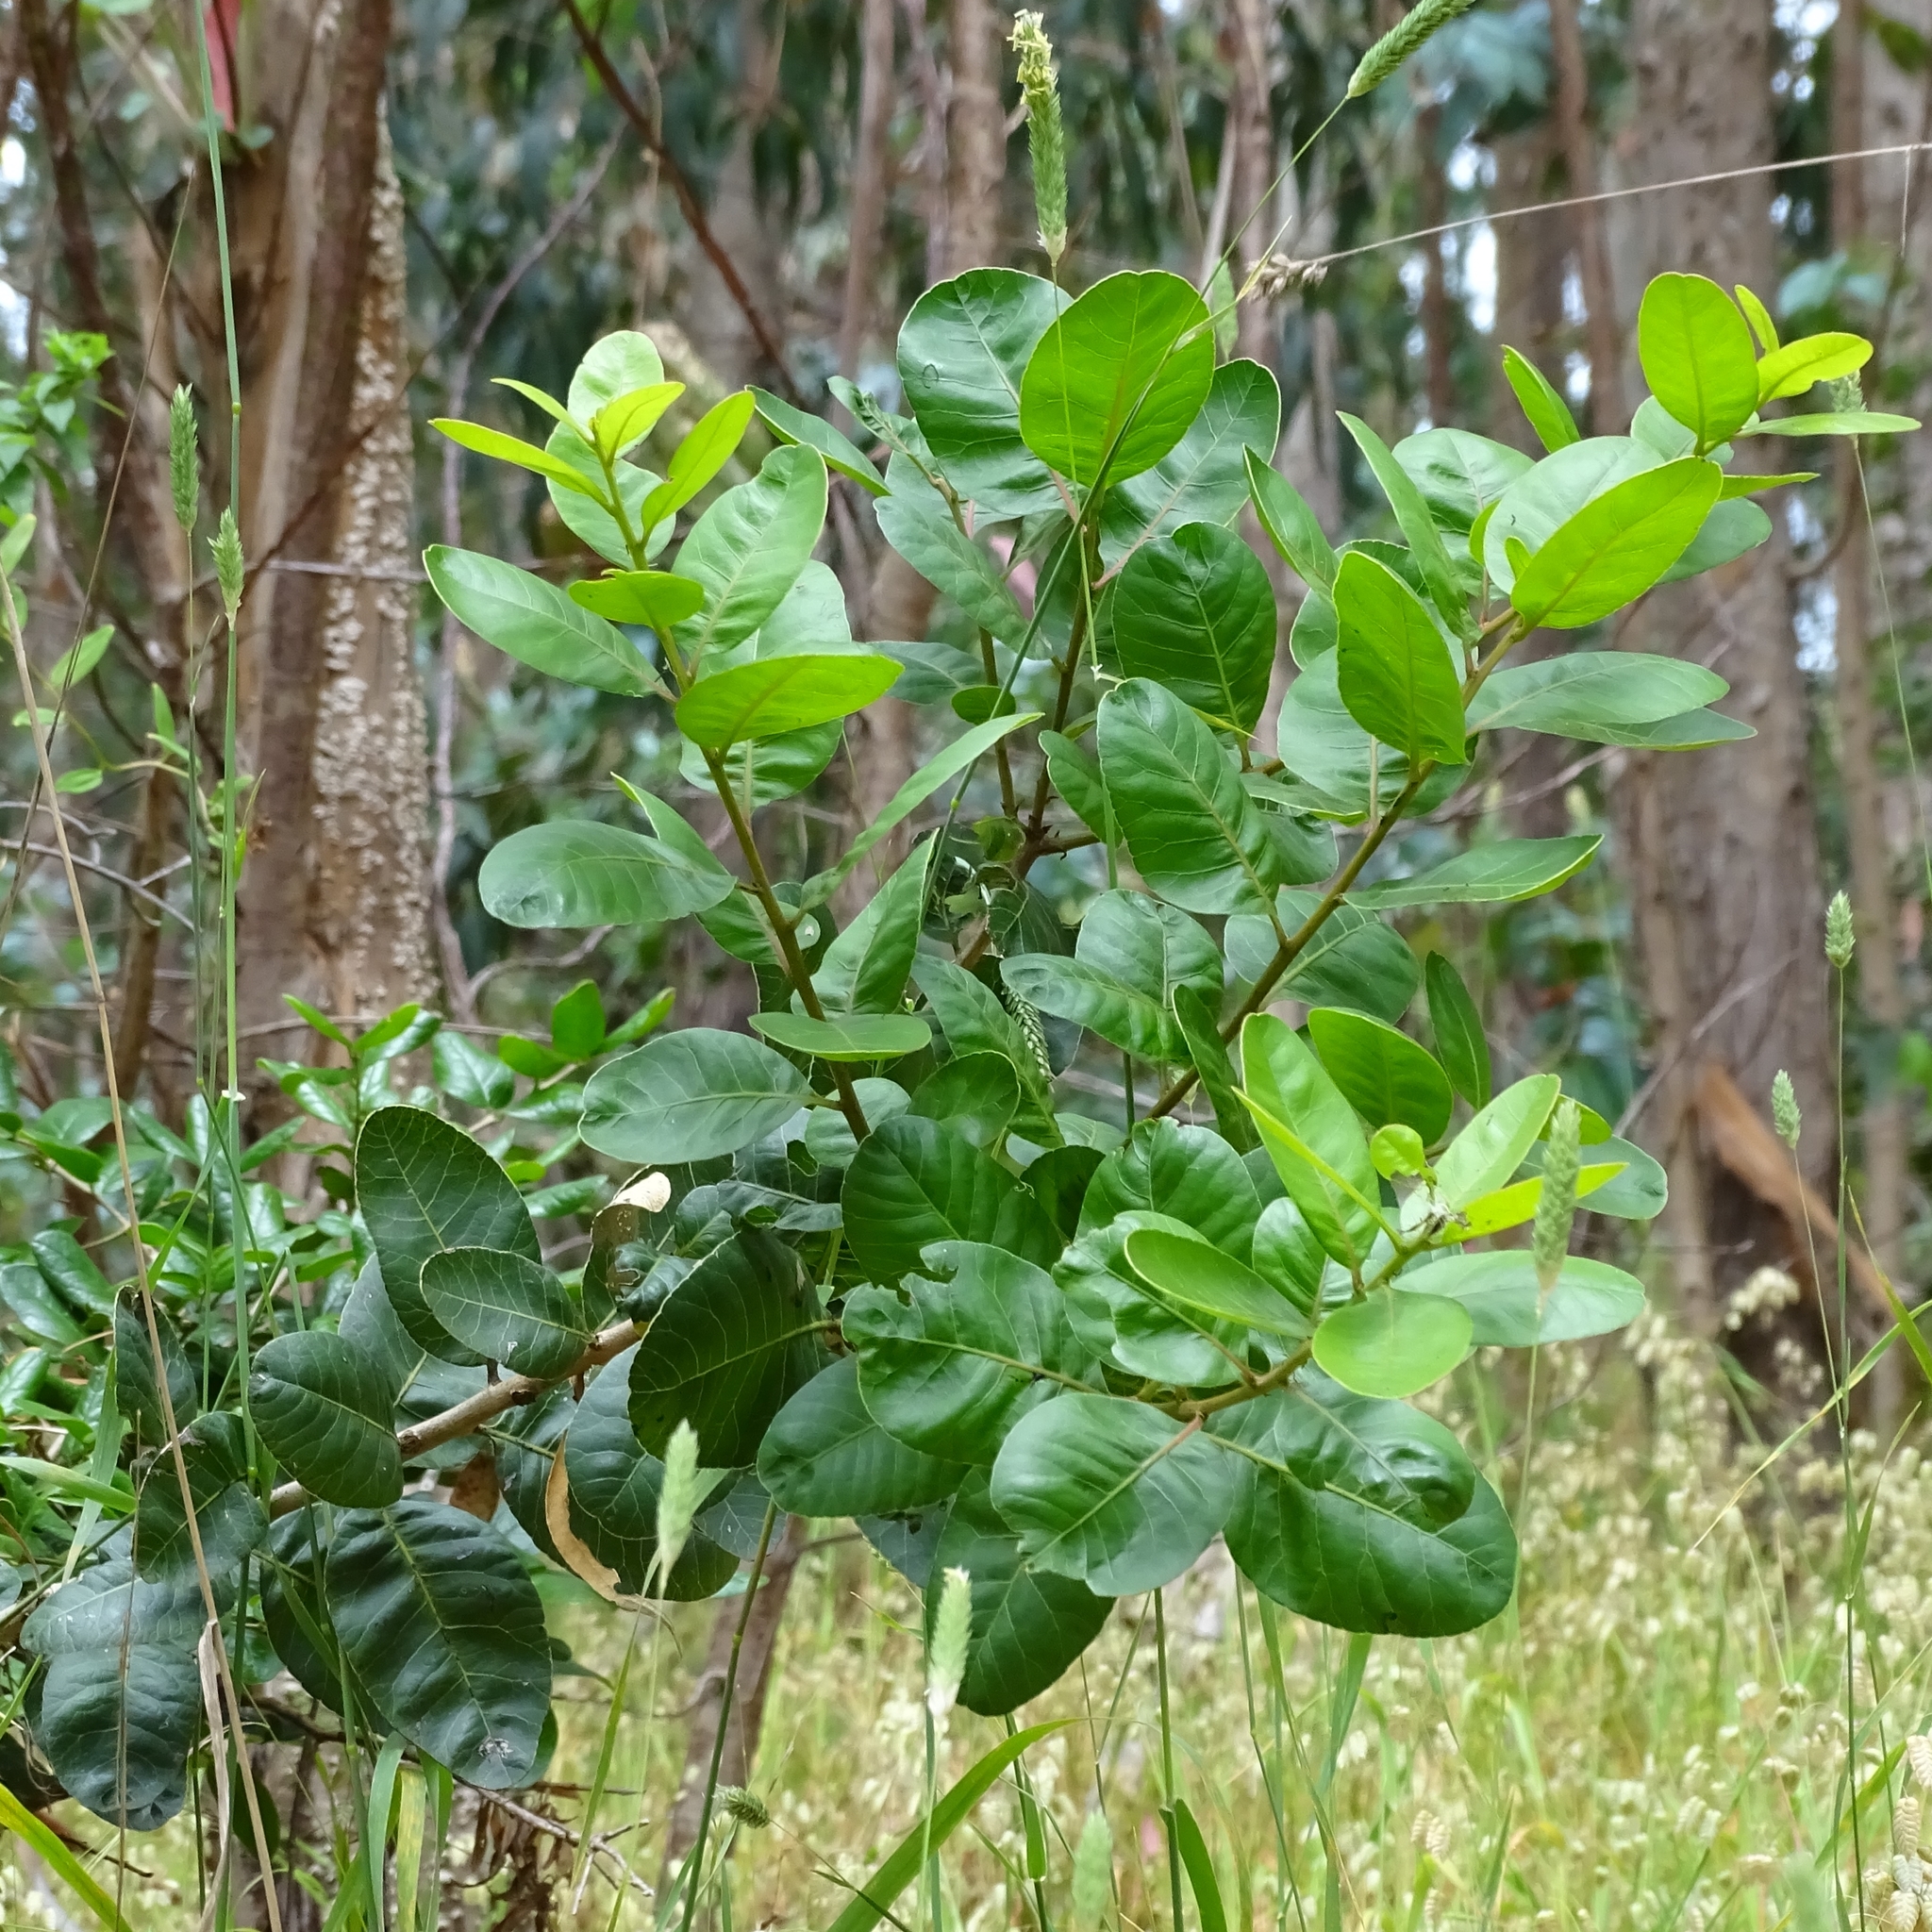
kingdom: Plantae
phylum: Tracheophyta
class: Magnoliopsida
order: Sapindales
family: Anacardiaceae
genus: Lithraea
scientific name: Lithraea caustica
